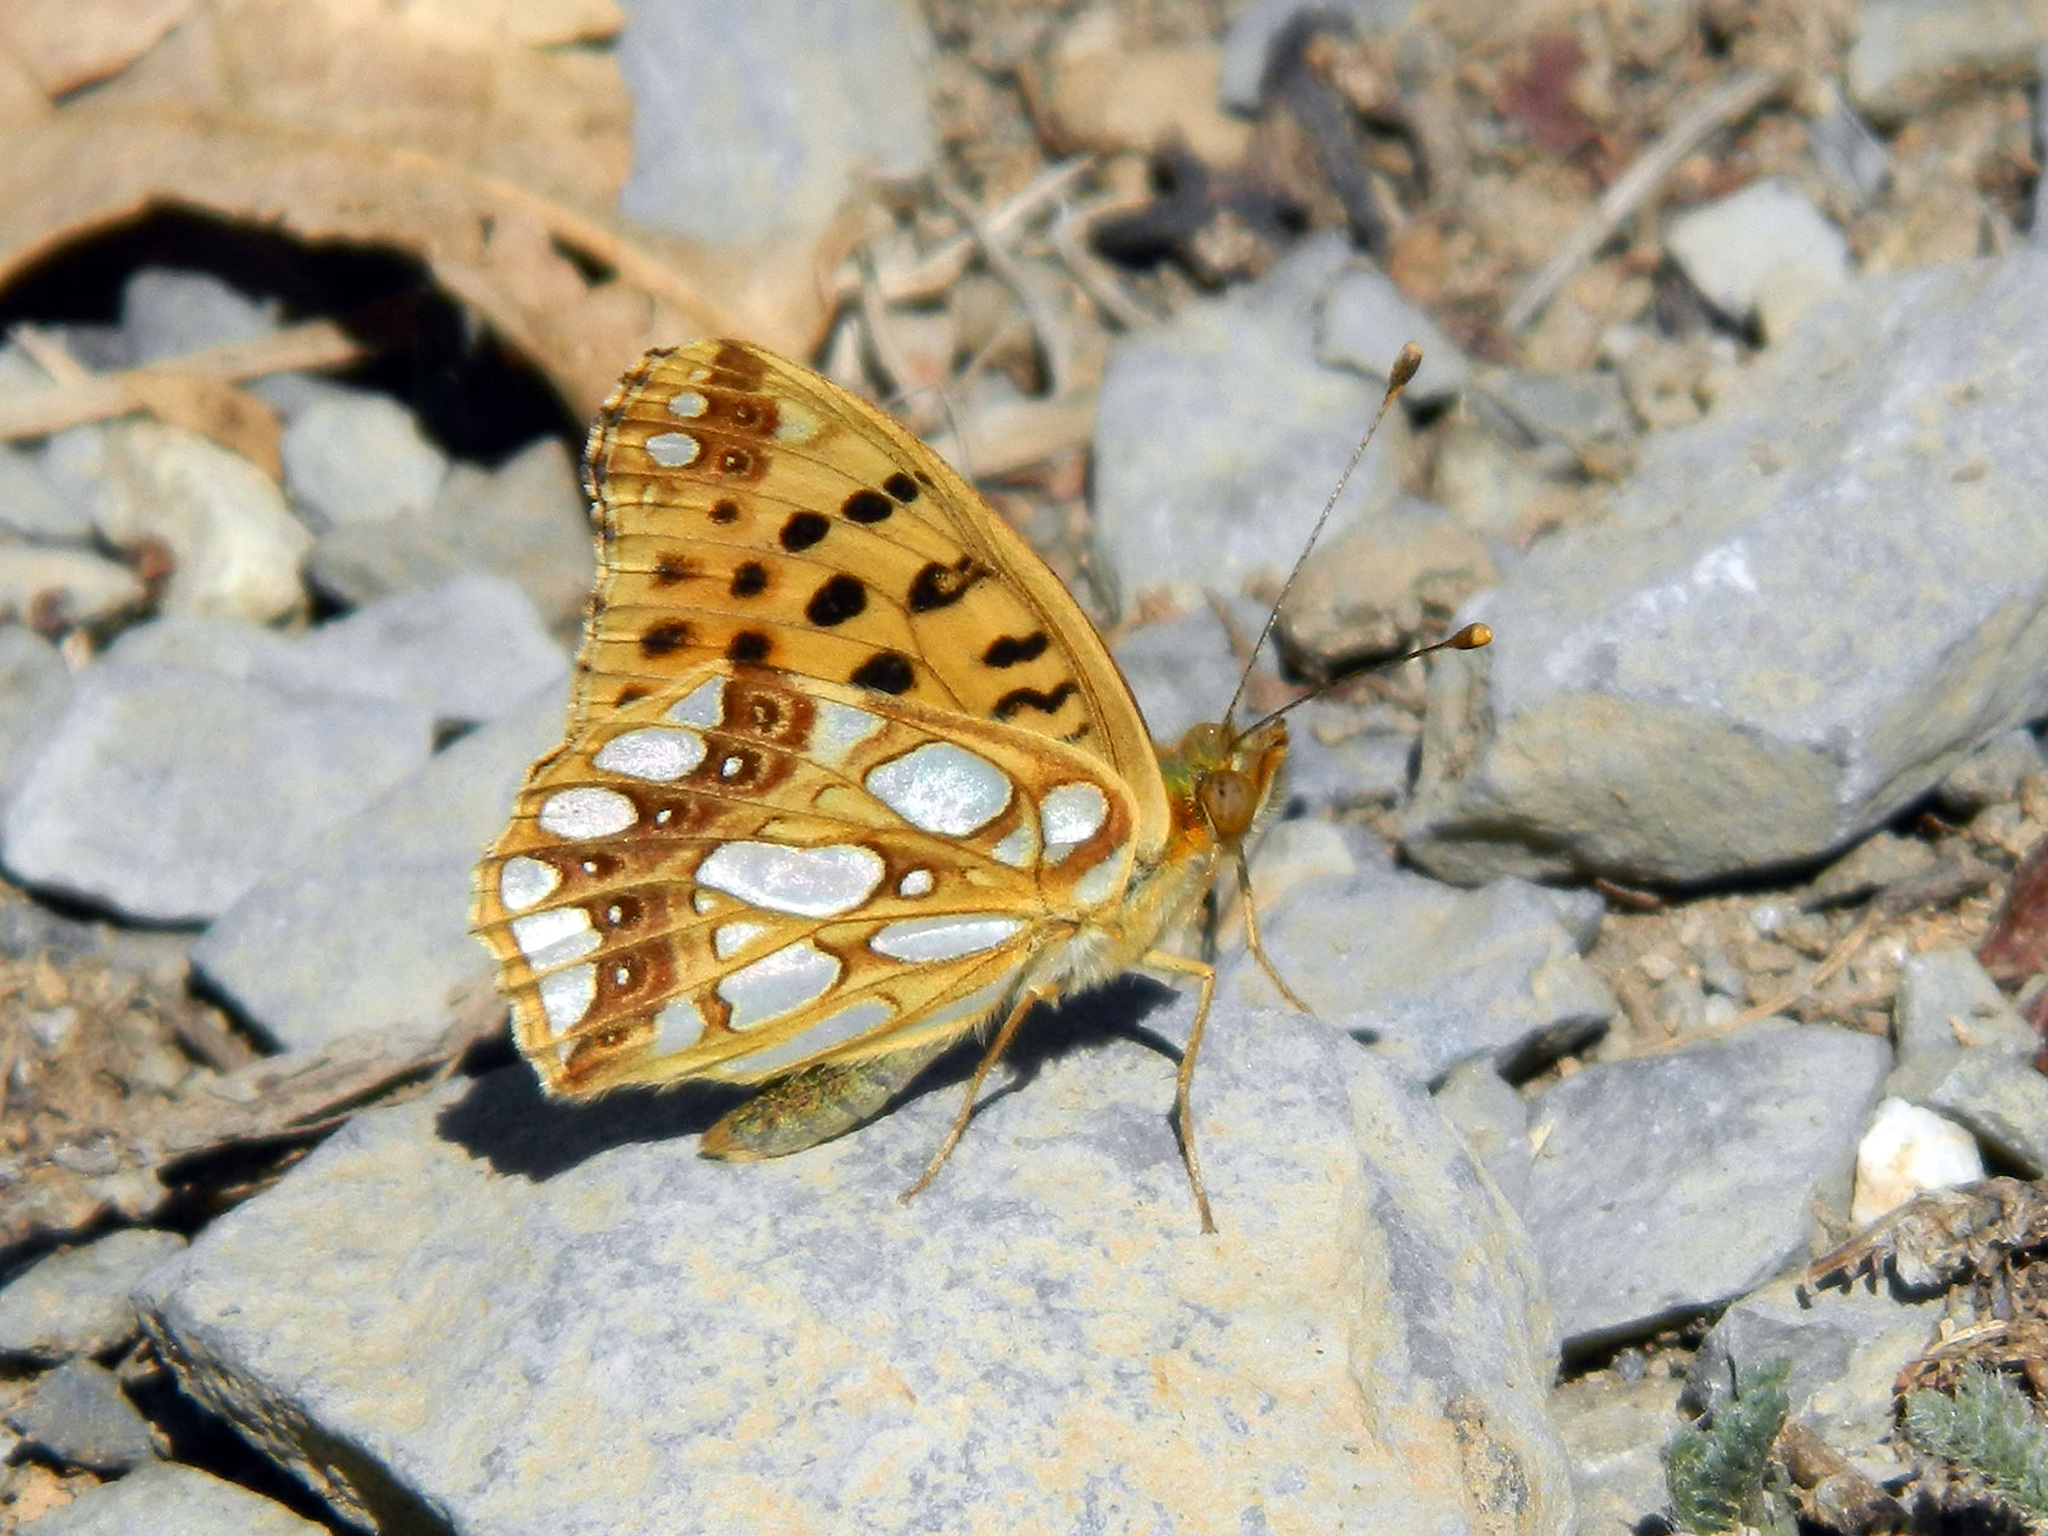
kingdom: Animalia
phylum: Arthropoda
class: Insecta
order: Lepidoptera
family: Nymphalidae
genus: Issoria
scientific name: Issoria lathonia
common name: Queen of spain fritillary
